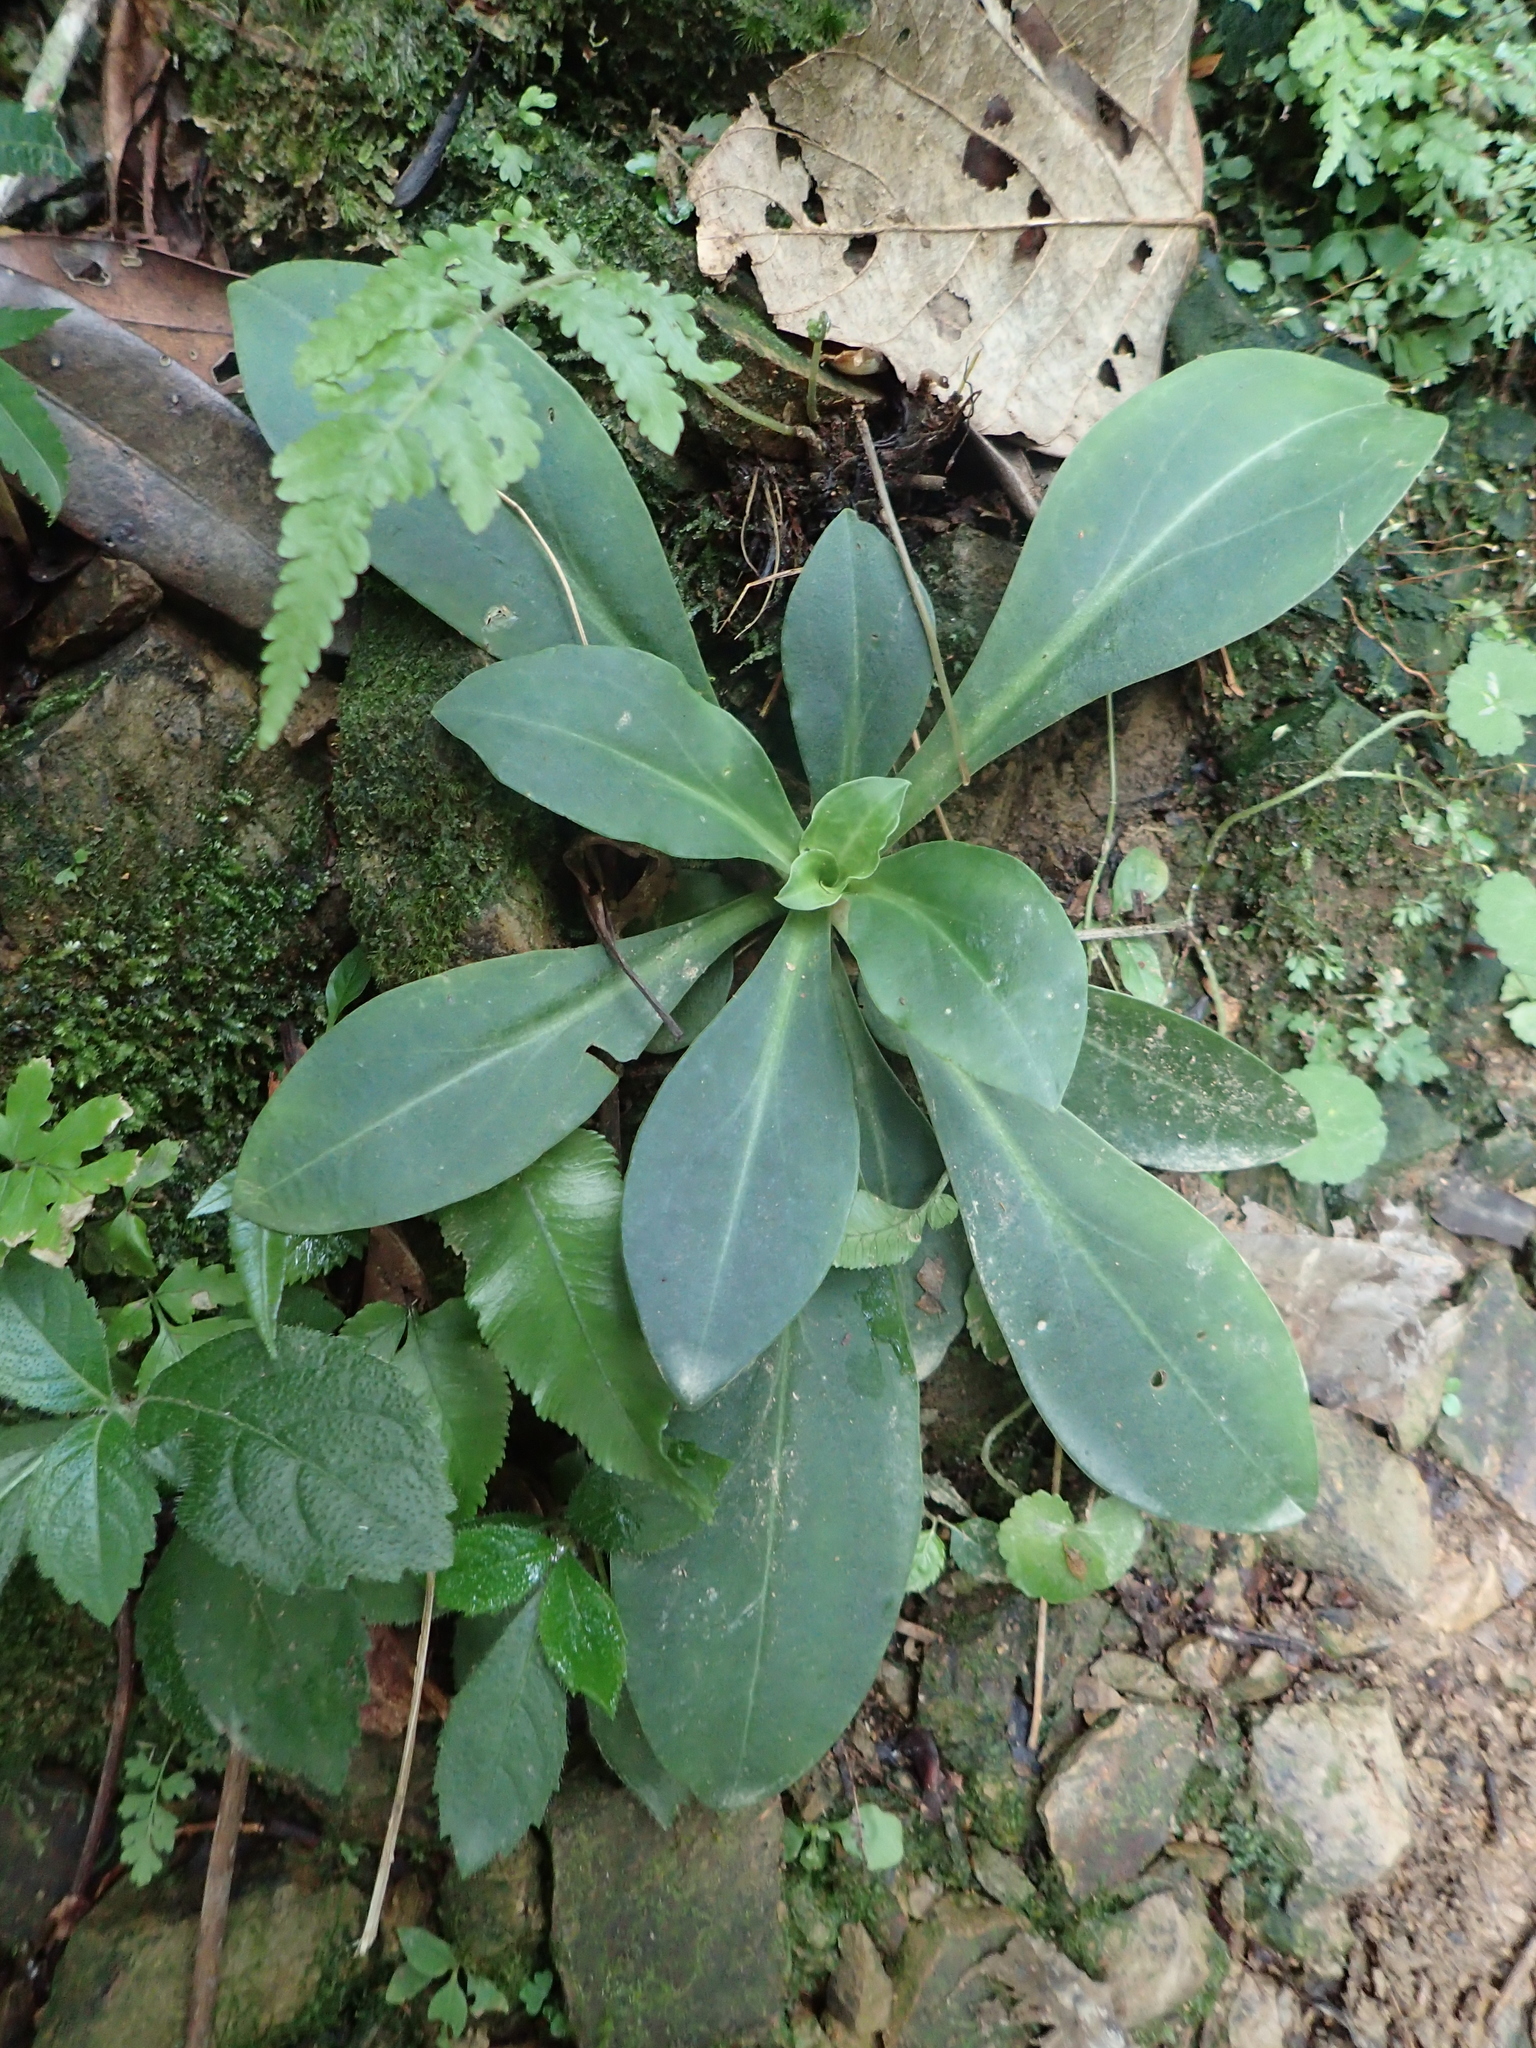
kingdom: Plantae
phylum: Tracheophyta
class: Magnoliopsida
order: Gentianales
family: Gentianaceae
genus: Swertia
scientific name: Swertia shintenensis
